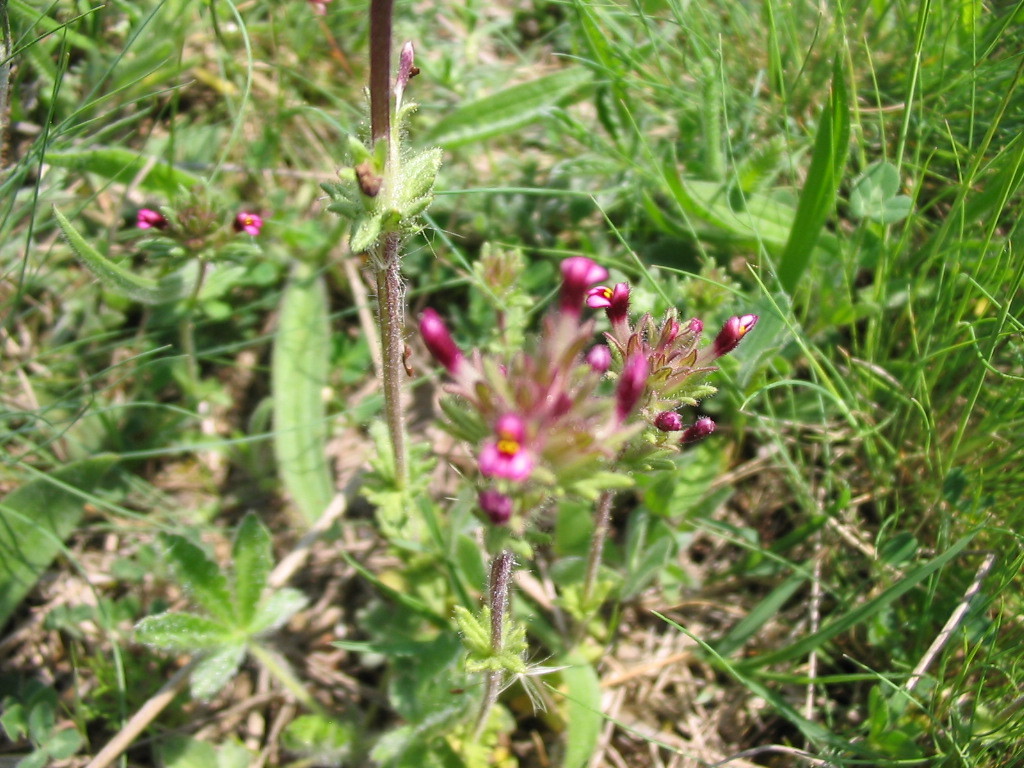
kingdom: Plantae
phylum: Tracheophyta
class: Magnoliopsida
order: Lamiales
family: Orobanchaceae
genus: Parentucellia
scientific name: Parentucellia latifolia
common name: Broadleaf glandweed
